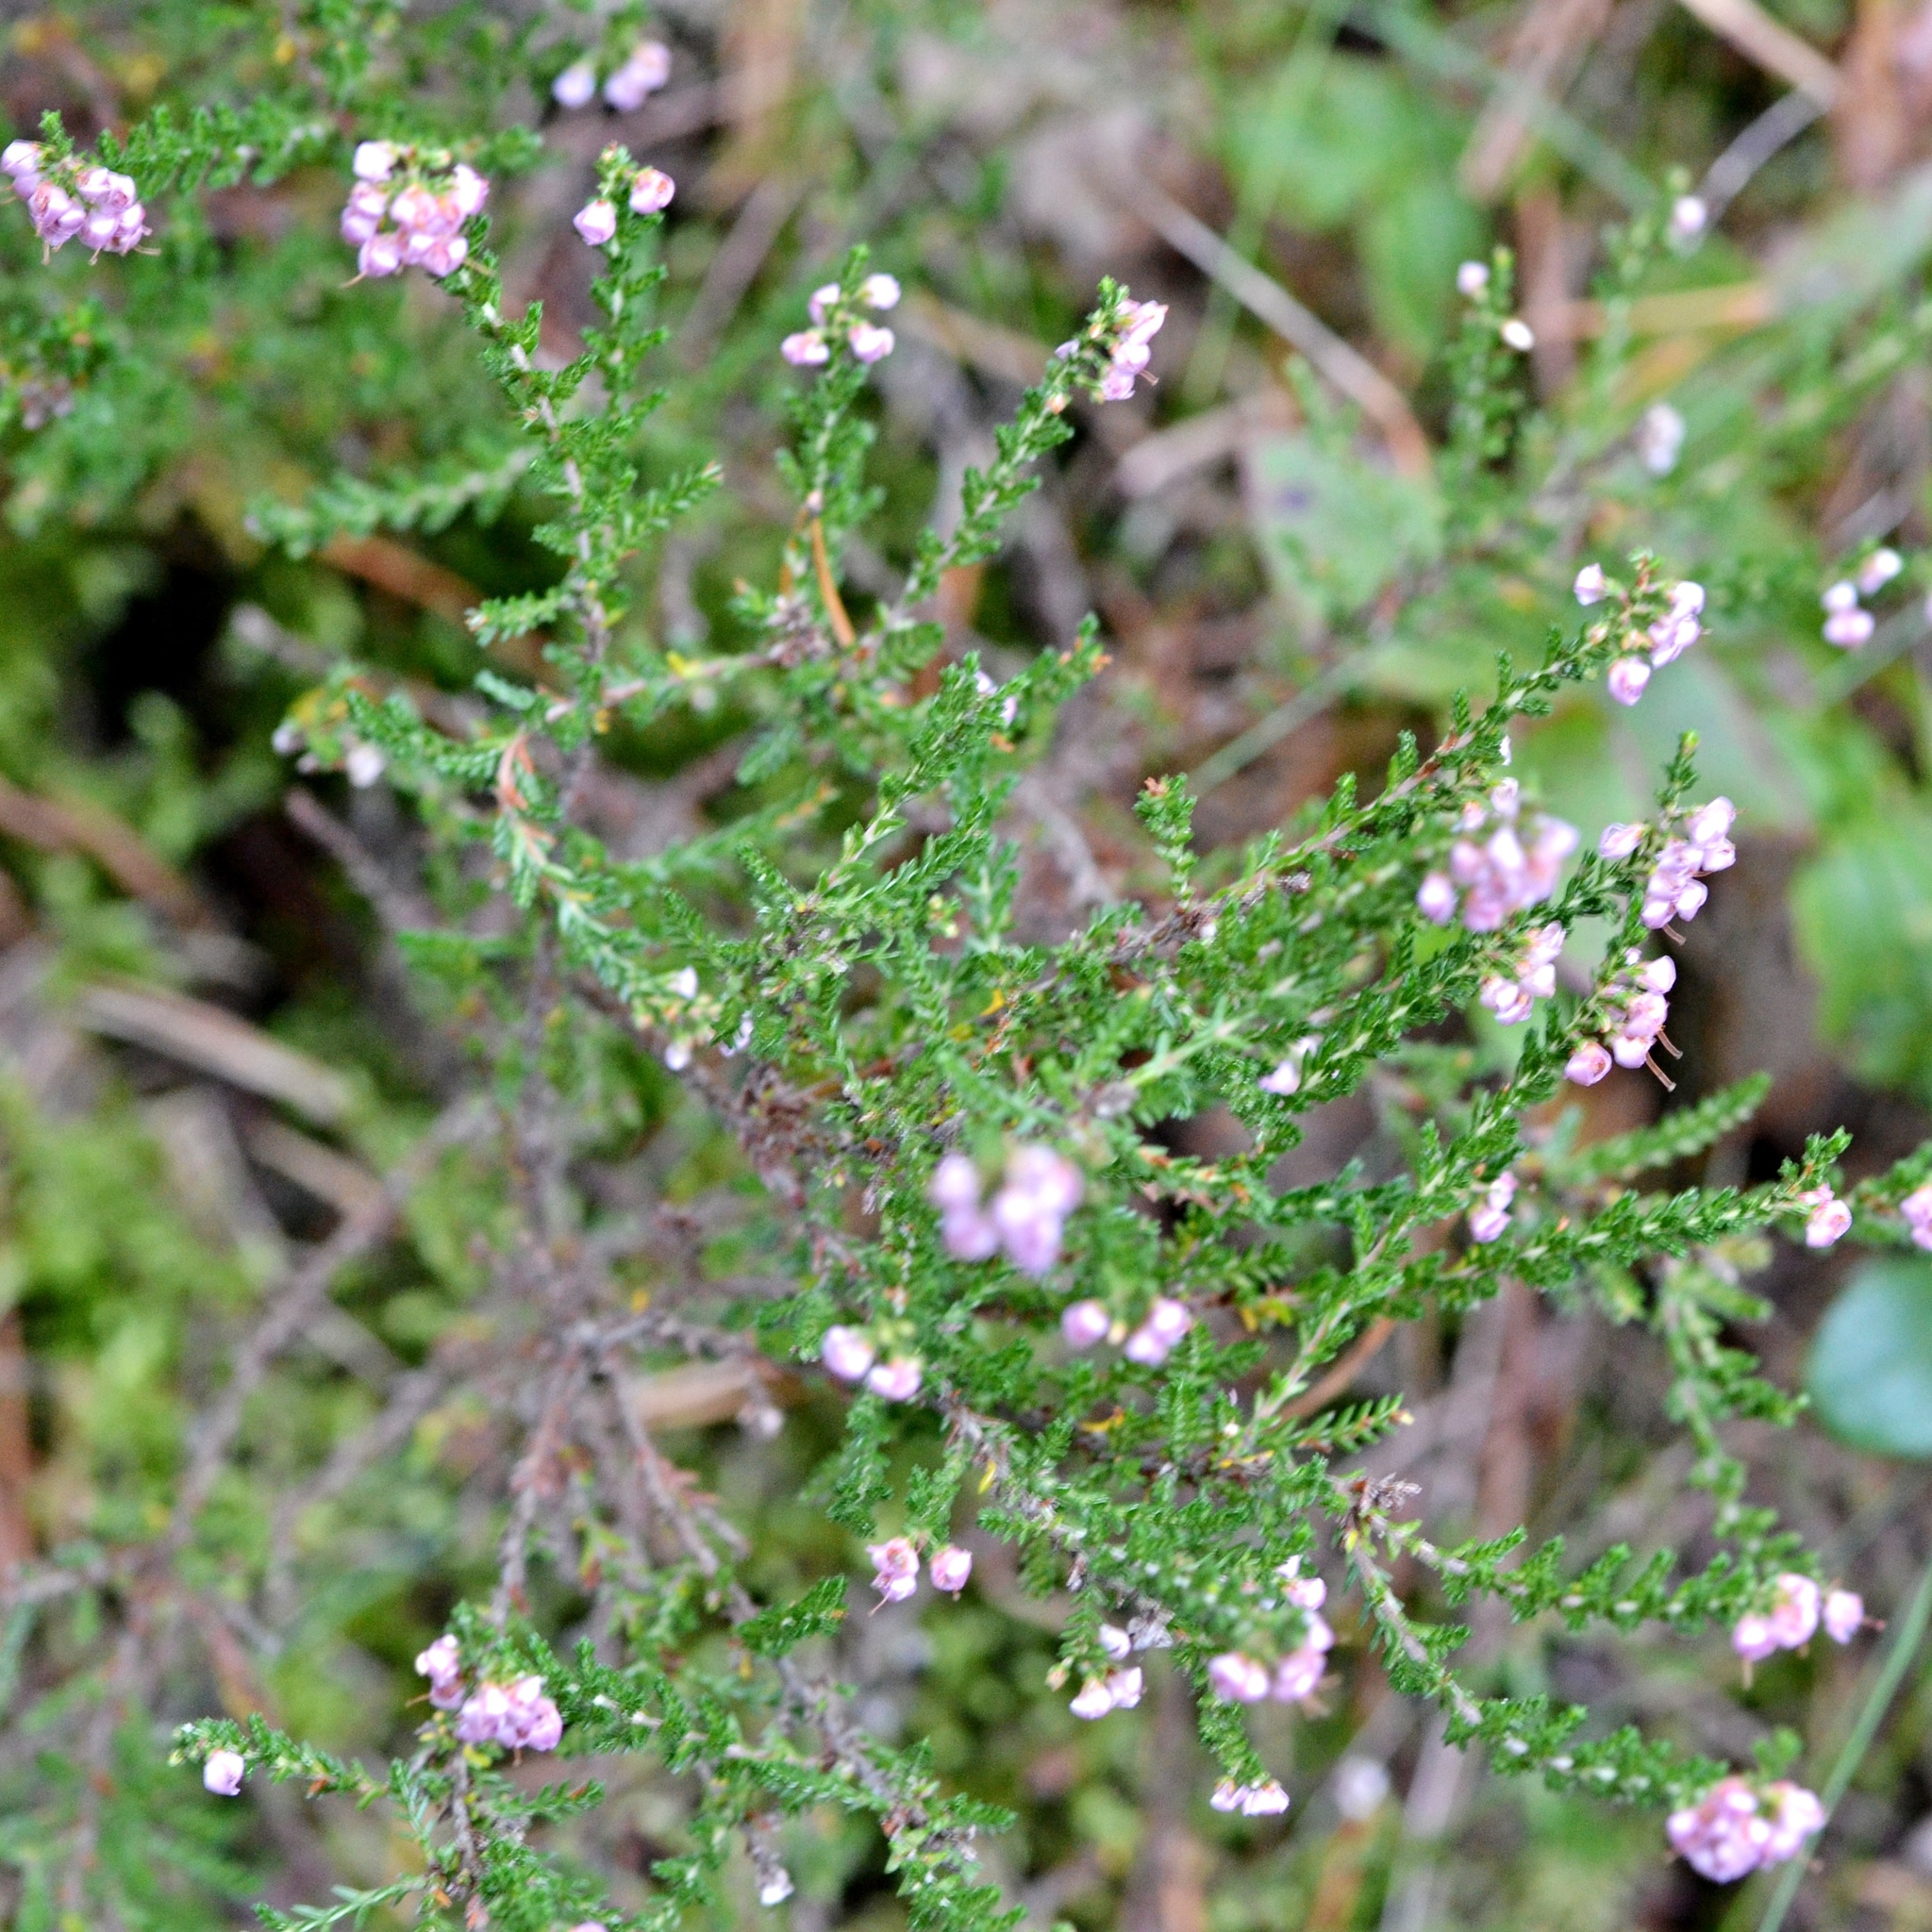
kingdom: Plantae
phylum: Tracheophyta
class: Magnoliopsida
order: Ericales
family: Ericaceae
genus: Calluna
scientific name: Calluna vulgaris
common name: Heather
